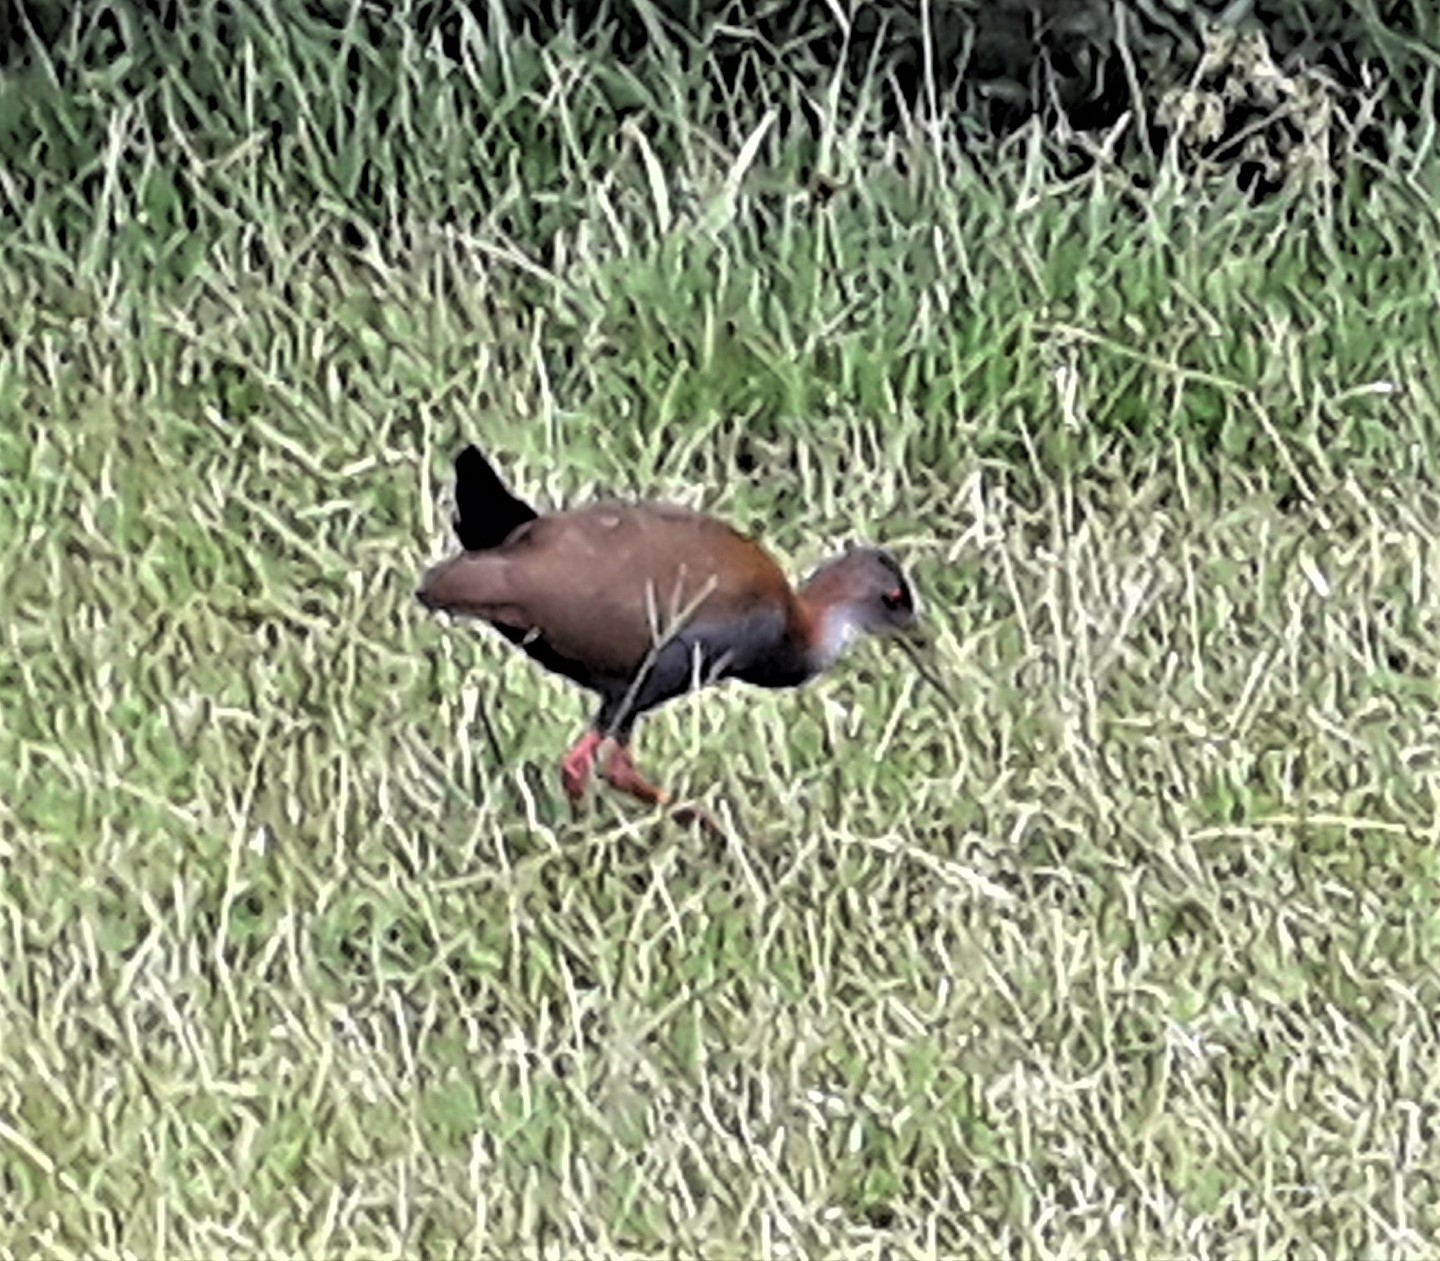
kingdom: Animalia
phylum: Chordata
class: Aves
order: Gruiformes
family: Rallidae
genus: Aramides
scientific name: Aramides saracura
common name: Slaty-breasted wood rail
